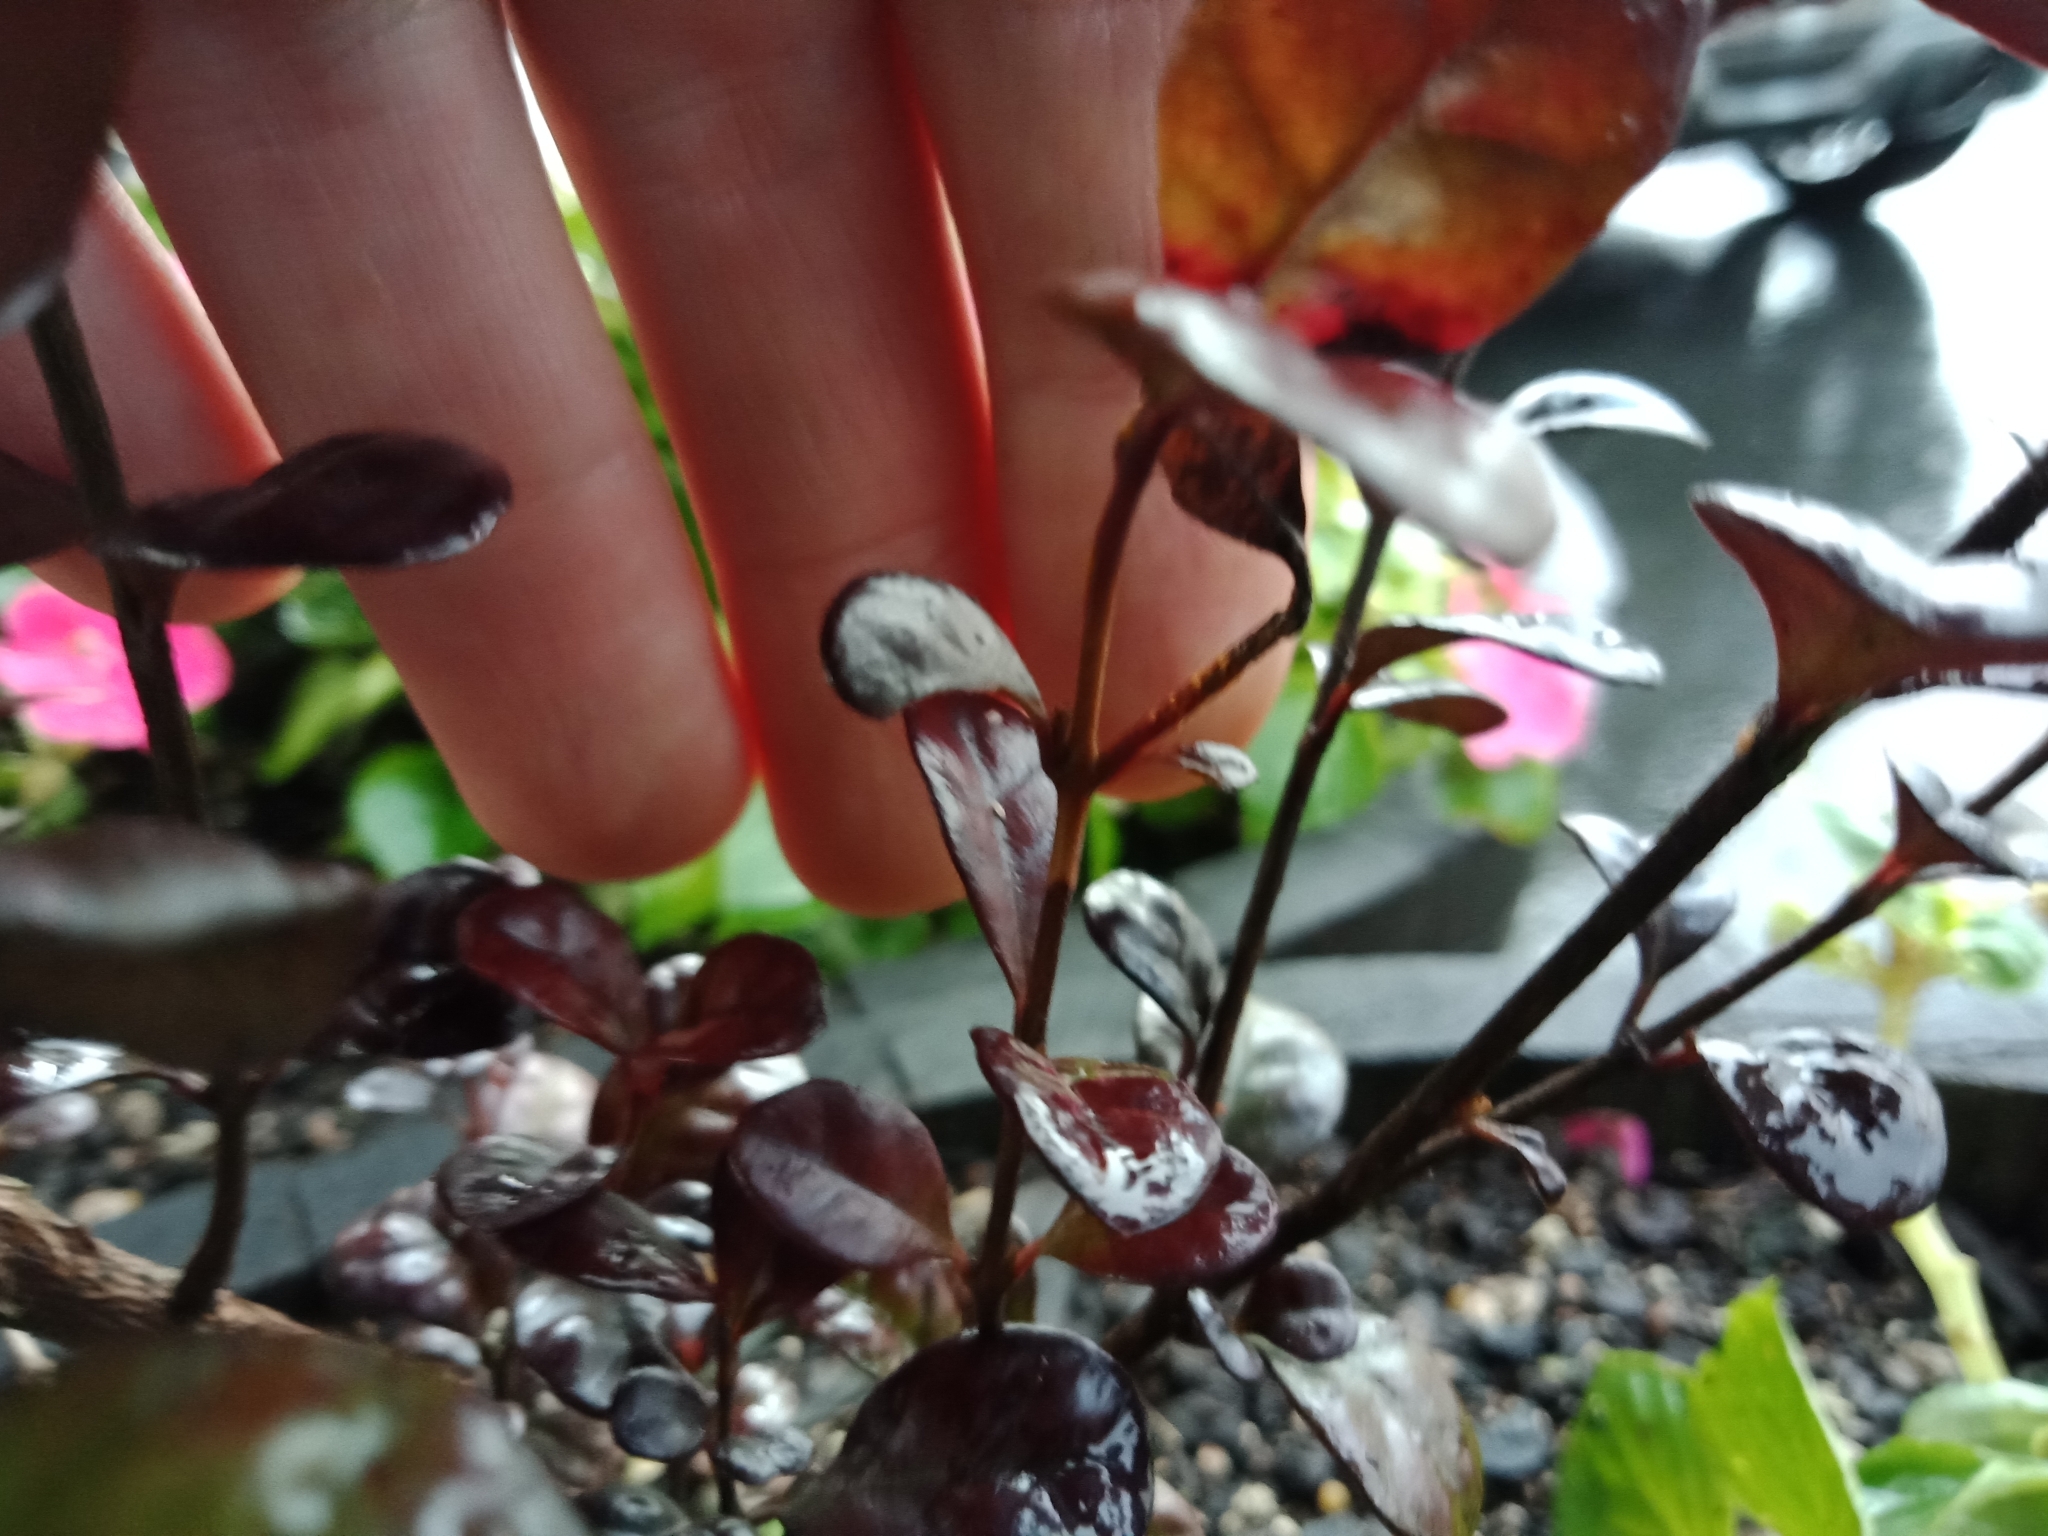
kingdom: Fungi
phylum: Basidiomycota
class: Pucciniomycetes
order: Pucciniales
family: Sphaerophragmiaceae
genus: Austropuccinia
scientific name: Austropuccinia psidii
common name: Myrtle rust
